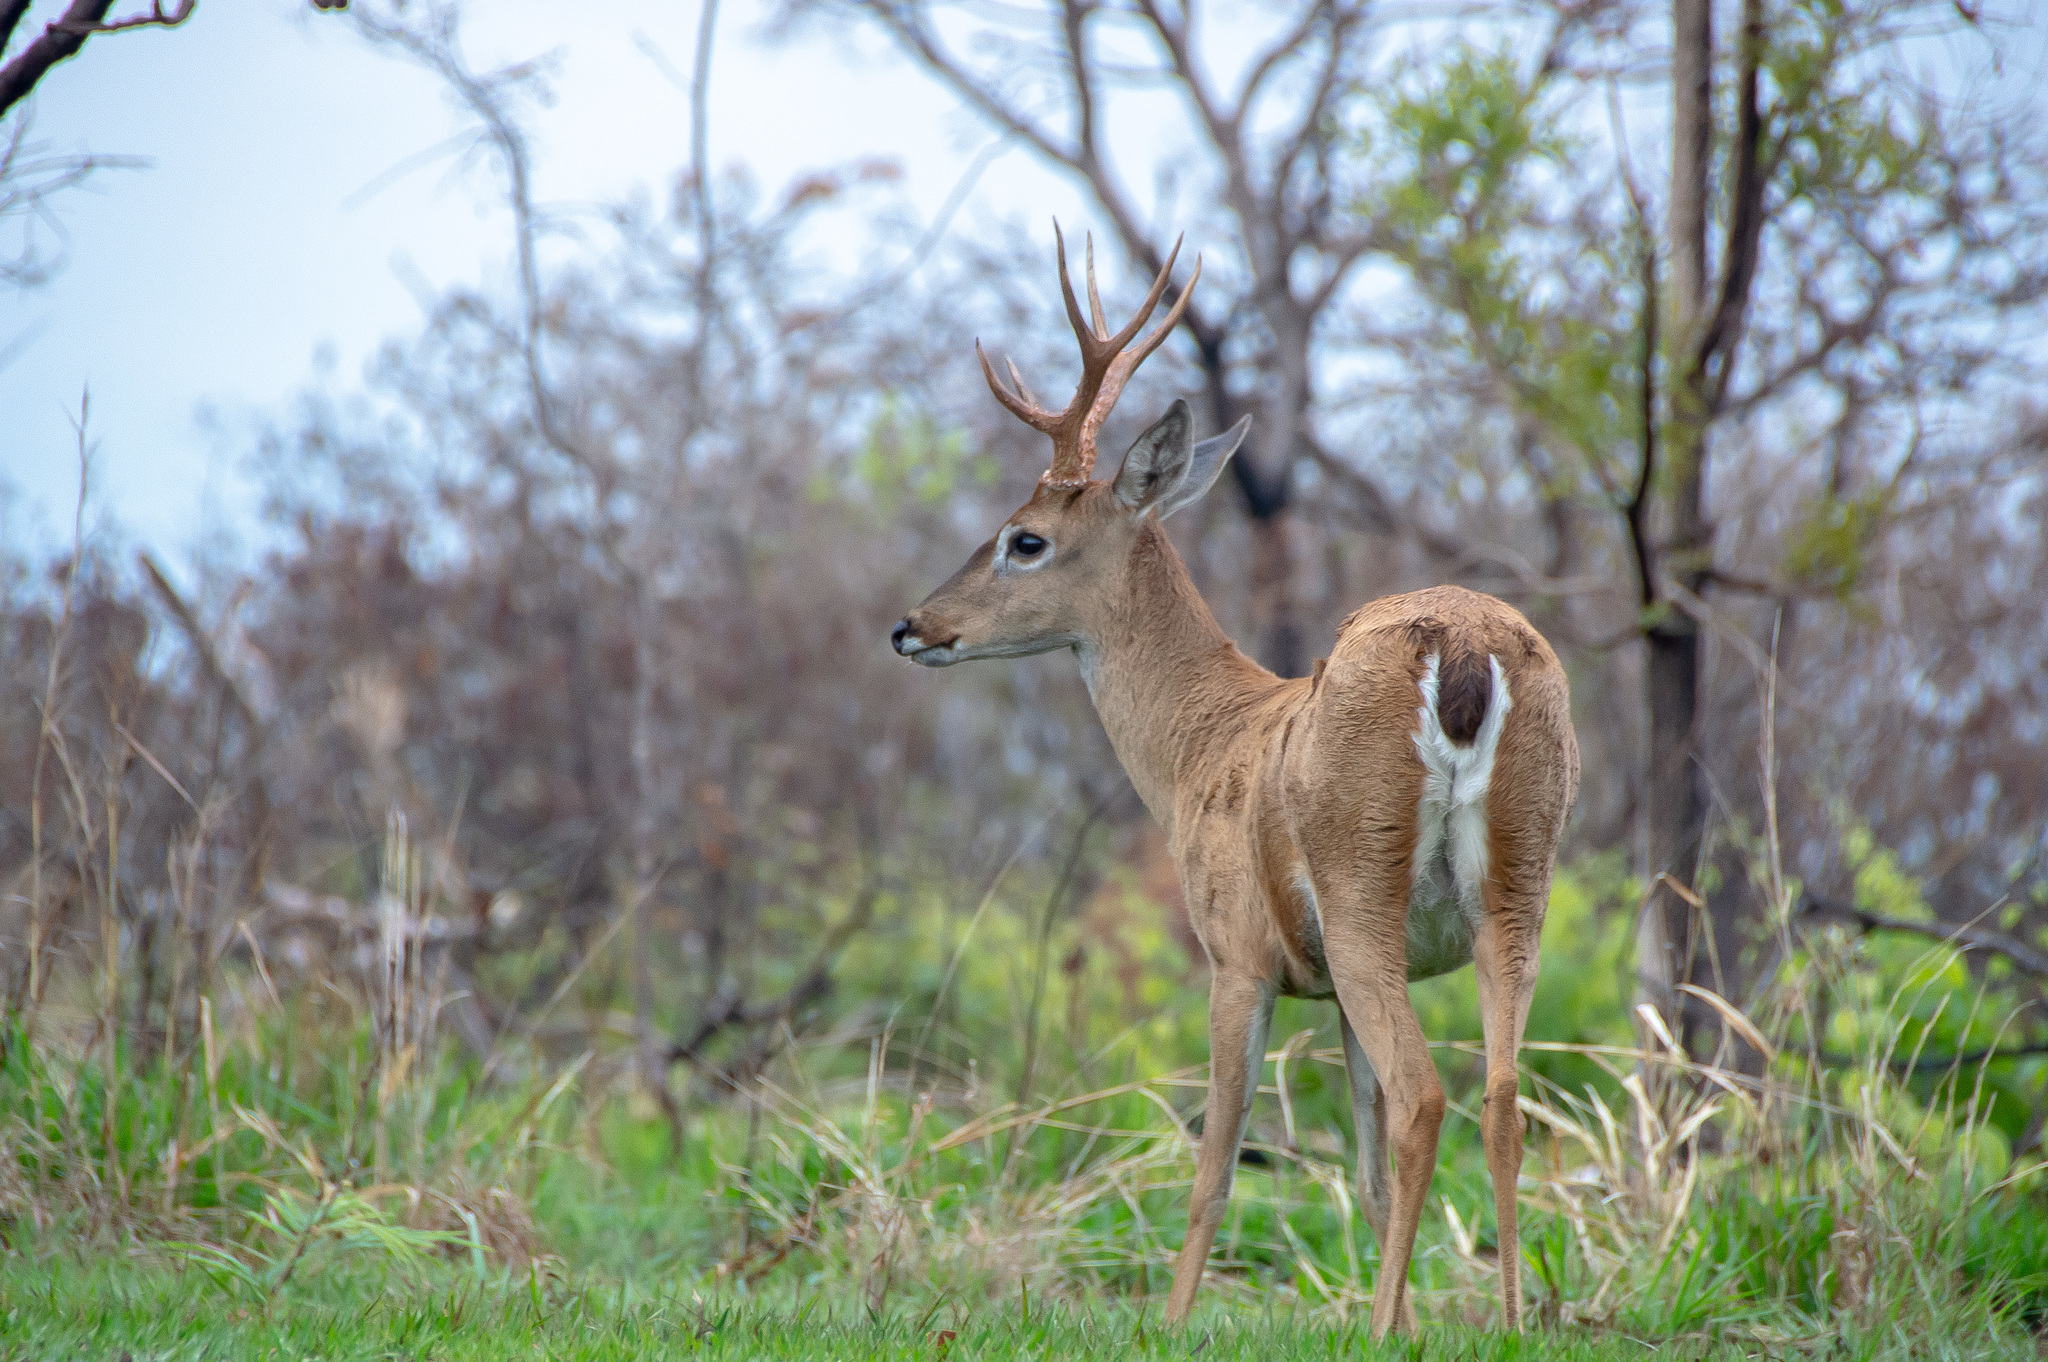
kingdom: Animalia
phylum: Chordata
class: Mammalia
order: Artiodactyla
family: Cervidae
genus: Ozotoceros
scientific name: Ozotoceros bezoarticus
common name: Pampas deer
